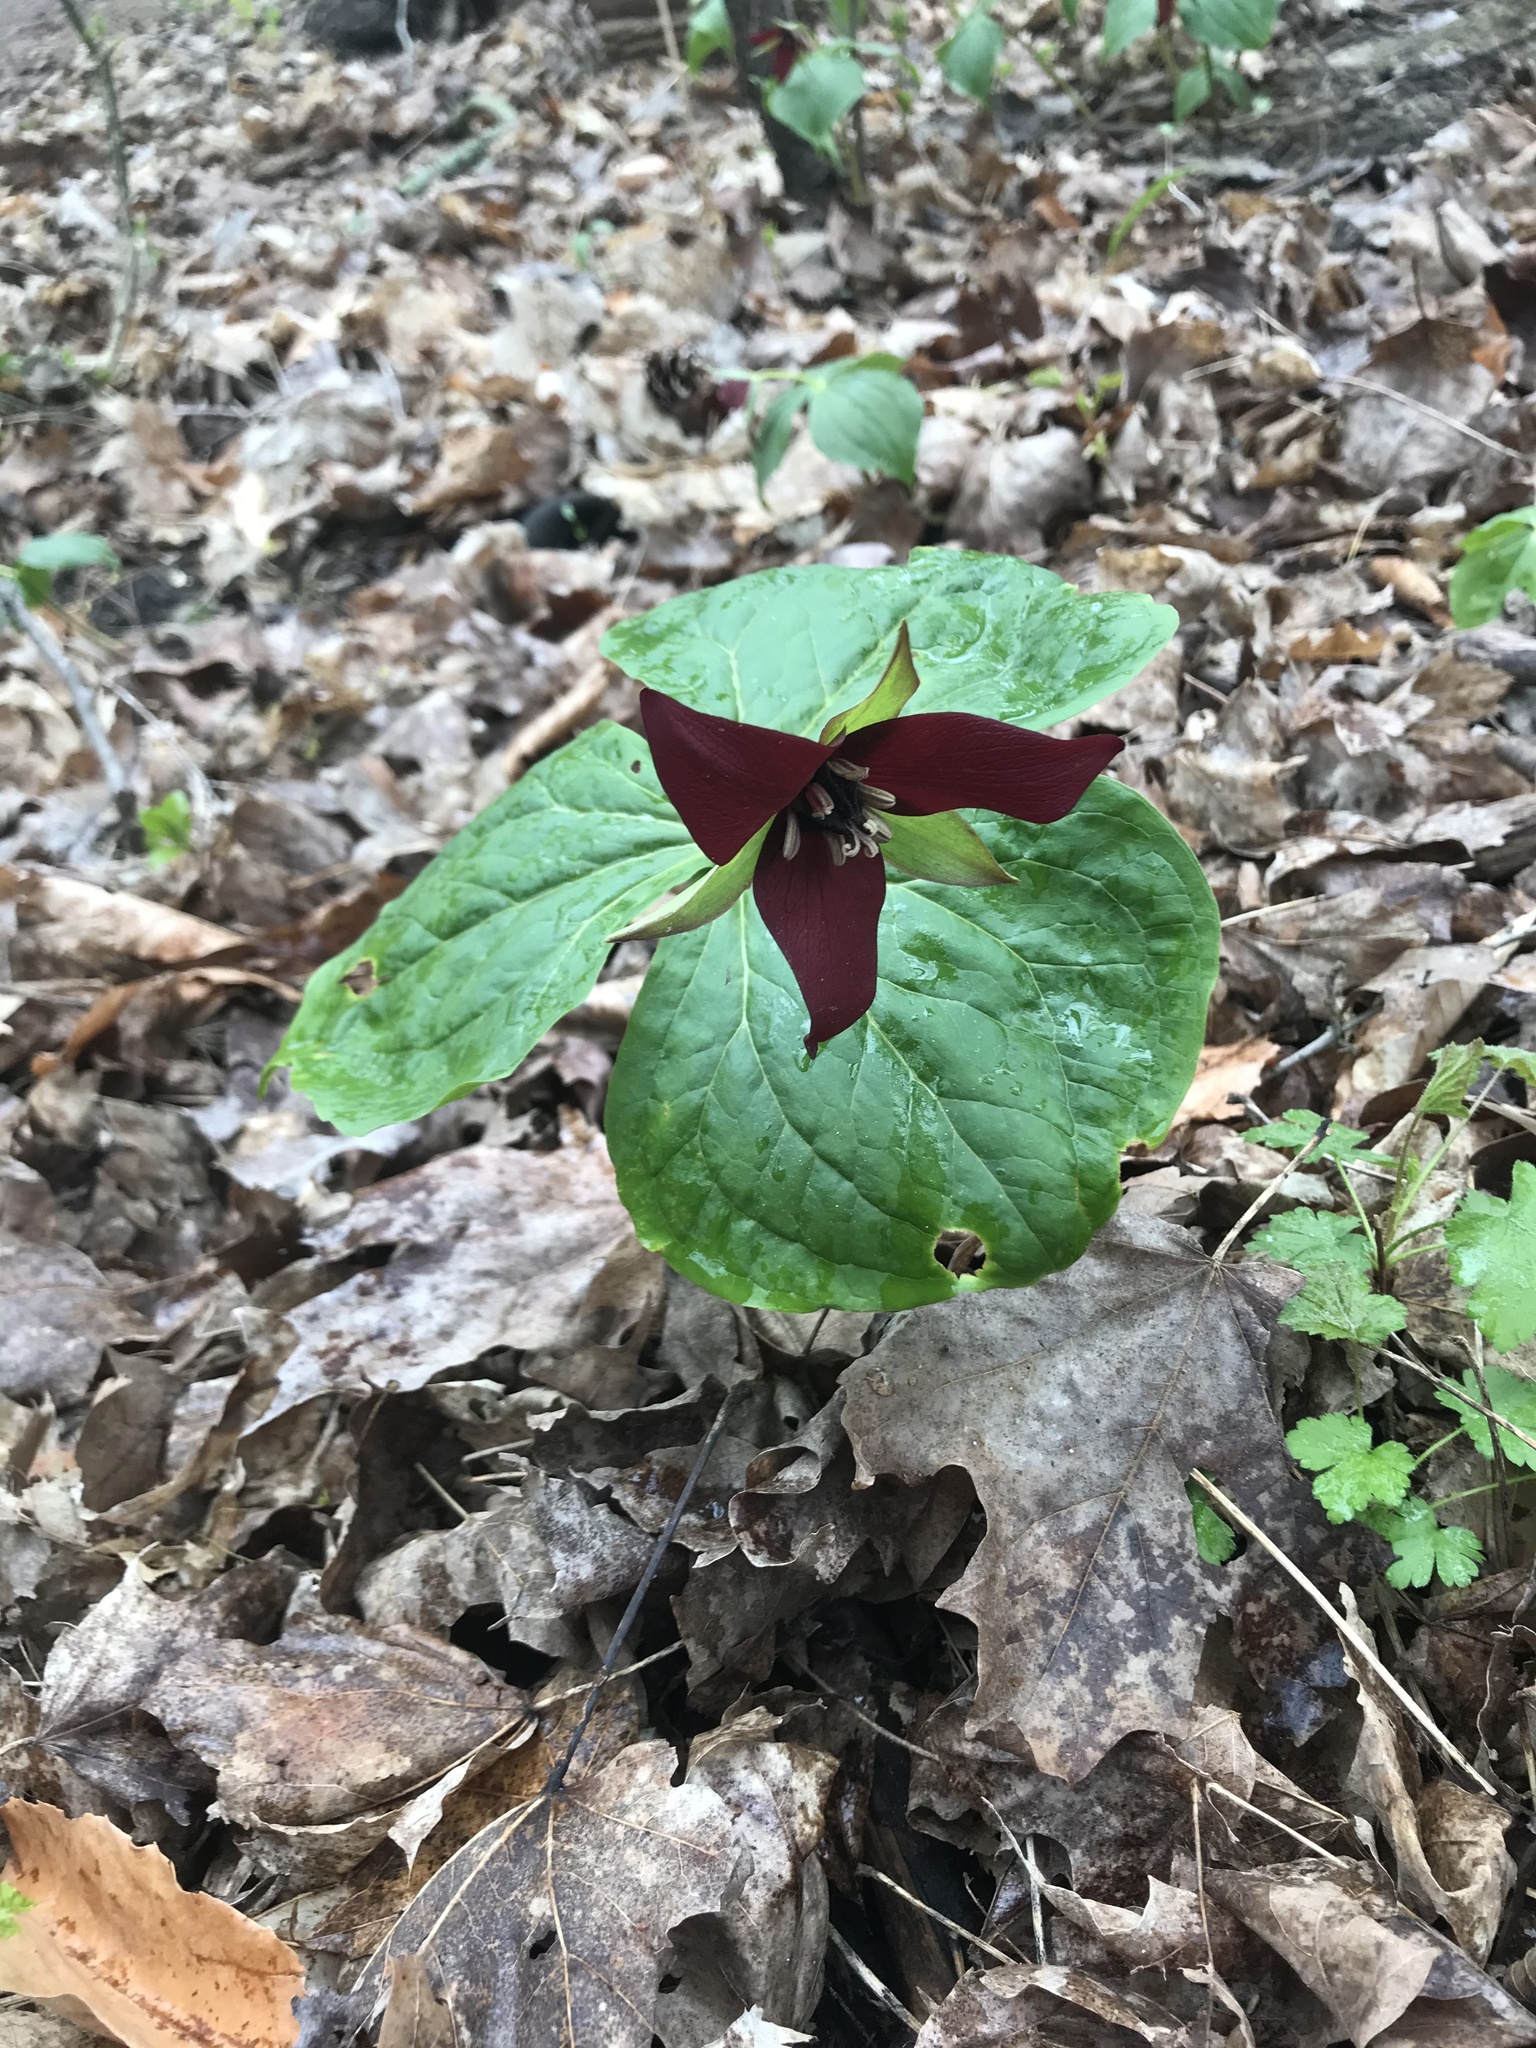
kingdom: Plantae
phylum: Tracheophyta
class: Liliopsida
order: Liliales
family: Melanthiaceae
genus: Trillium
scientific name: Trillium erectum
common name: Purple trillium
